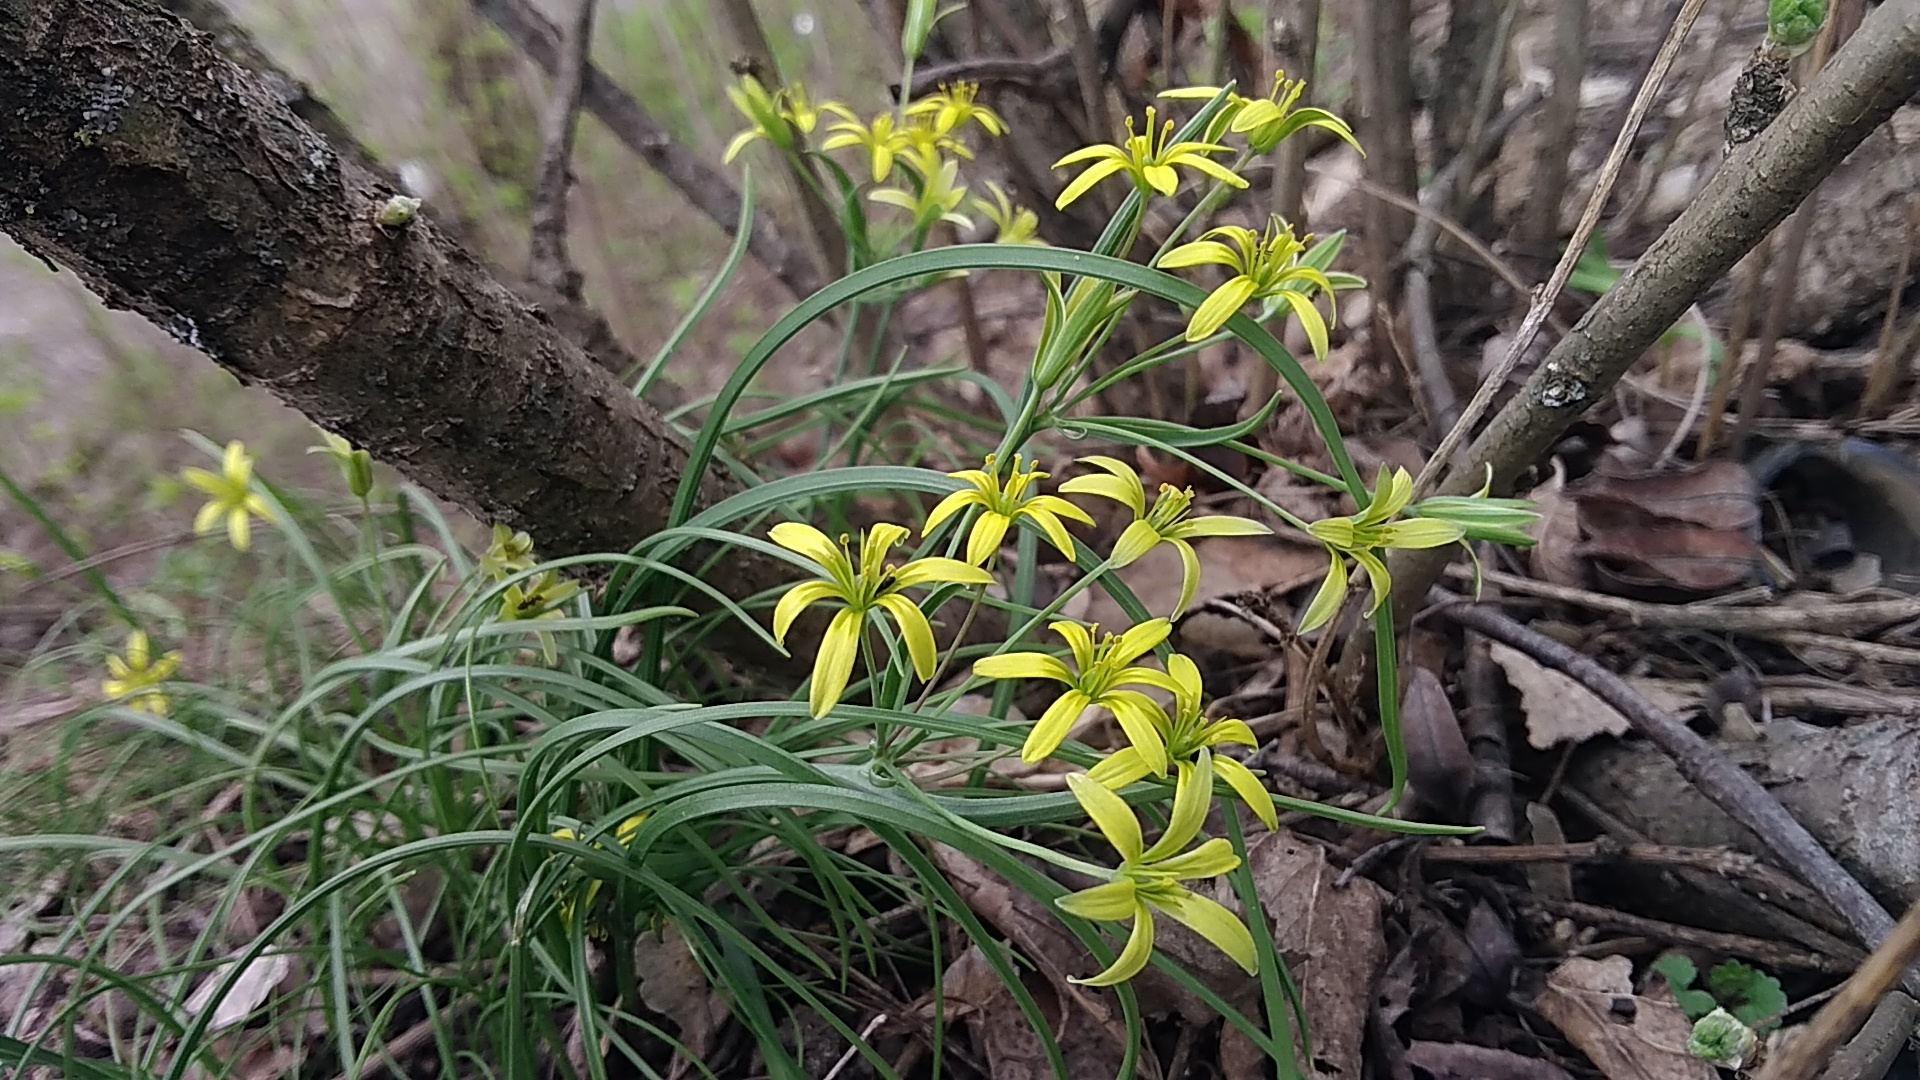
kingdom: Plantae
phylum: Tracheophyta
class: Liliopsida
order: Liliales
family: Liliaceae
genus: Gagea
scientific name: Gagea fragifera
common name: Lily
